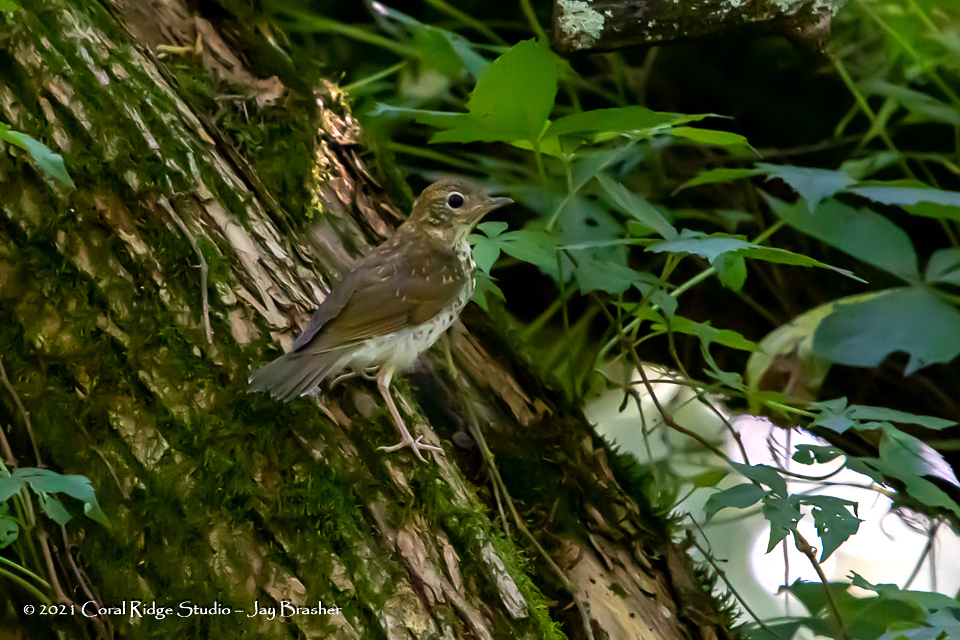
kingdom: Animalia
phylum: Chordata
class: Aves
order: Passeriformes
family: Turdidae
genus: Hylocichla
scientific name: Hylocichla mustelina
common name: Wood thrush
